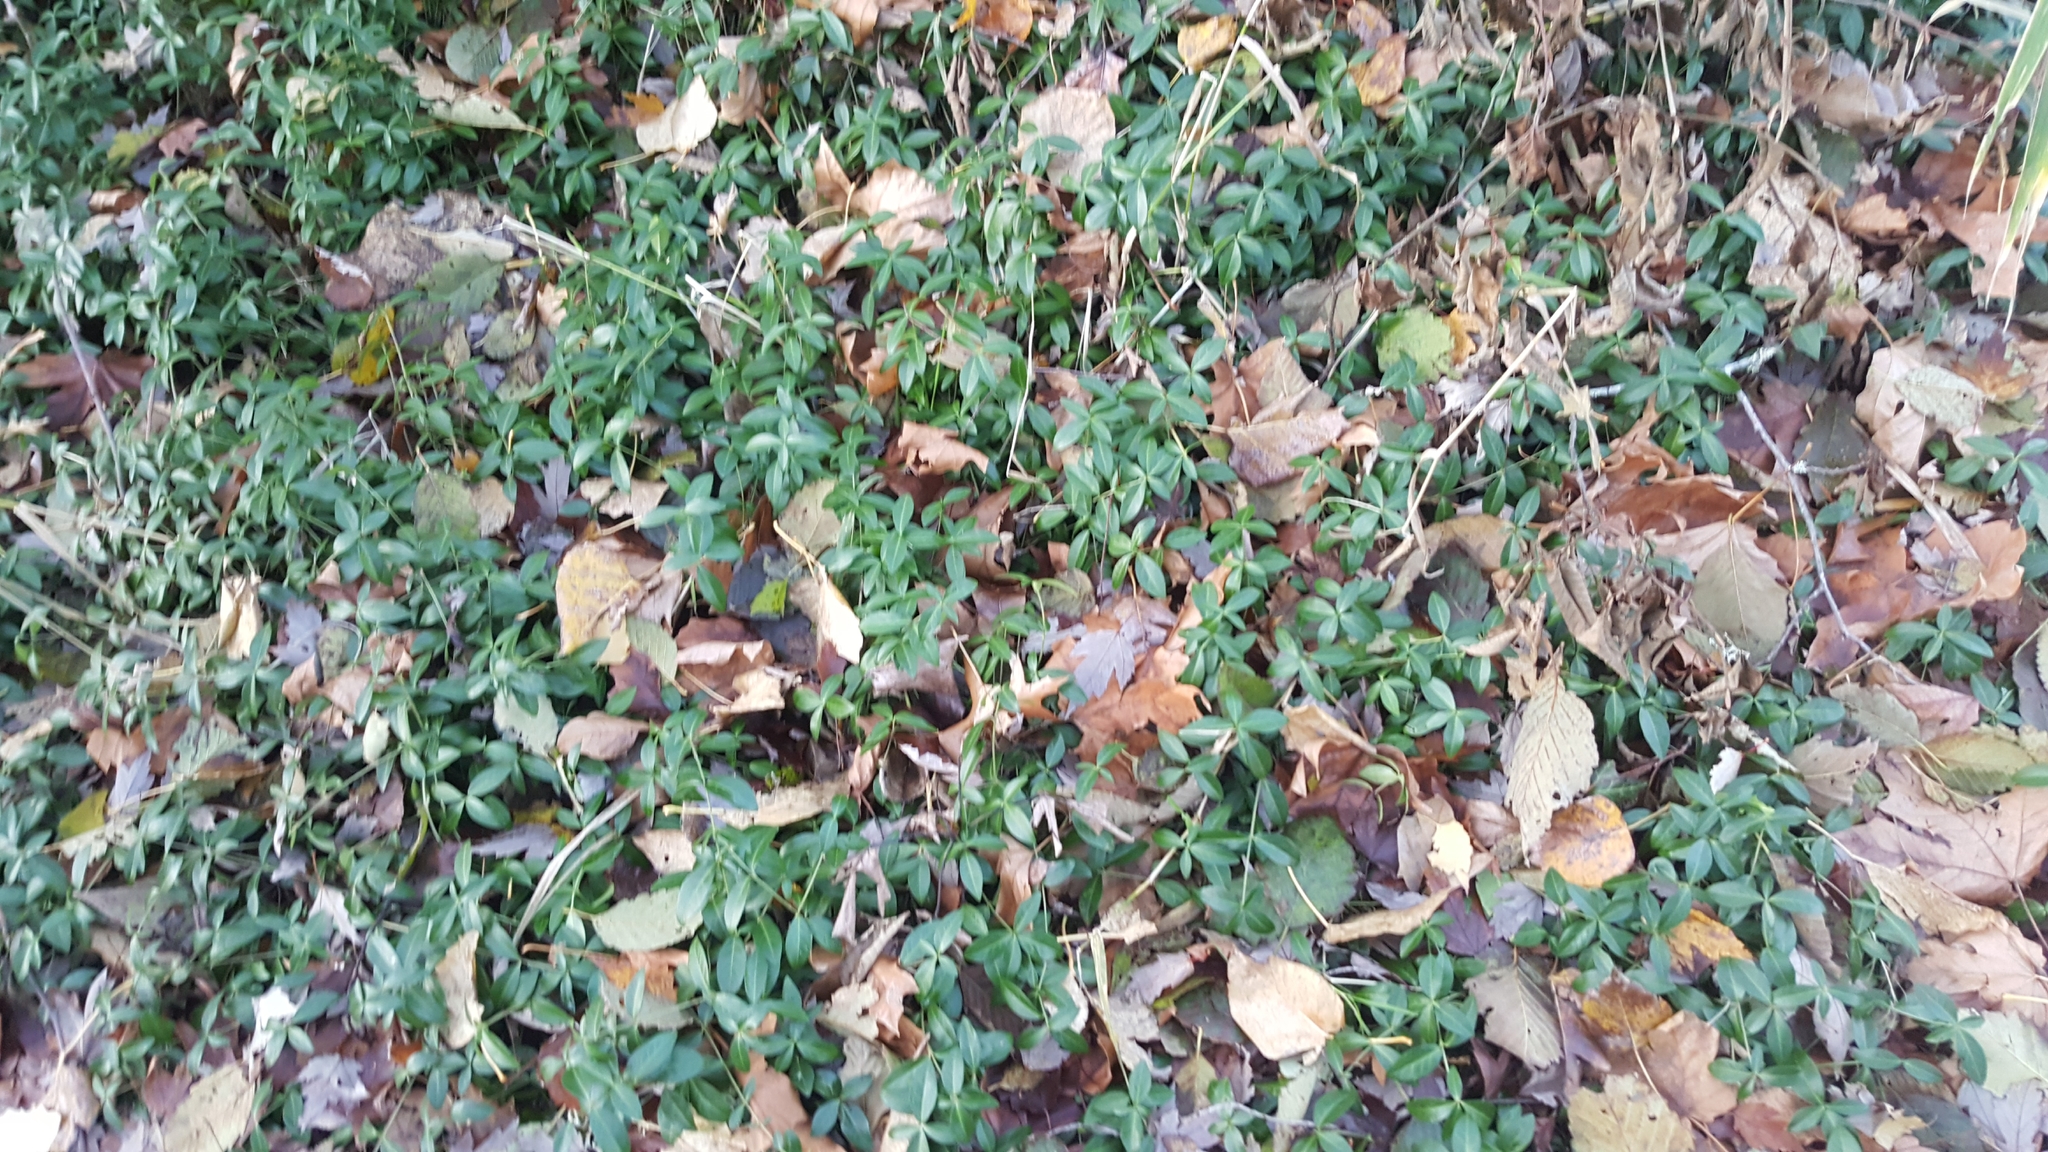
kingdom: Plantae
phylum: Tracheophyta
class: Magnoliopsida
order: Gentianales
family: Apocynaceae
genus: Vinca
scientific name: Vinca minor
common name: Lesser periwinkle
